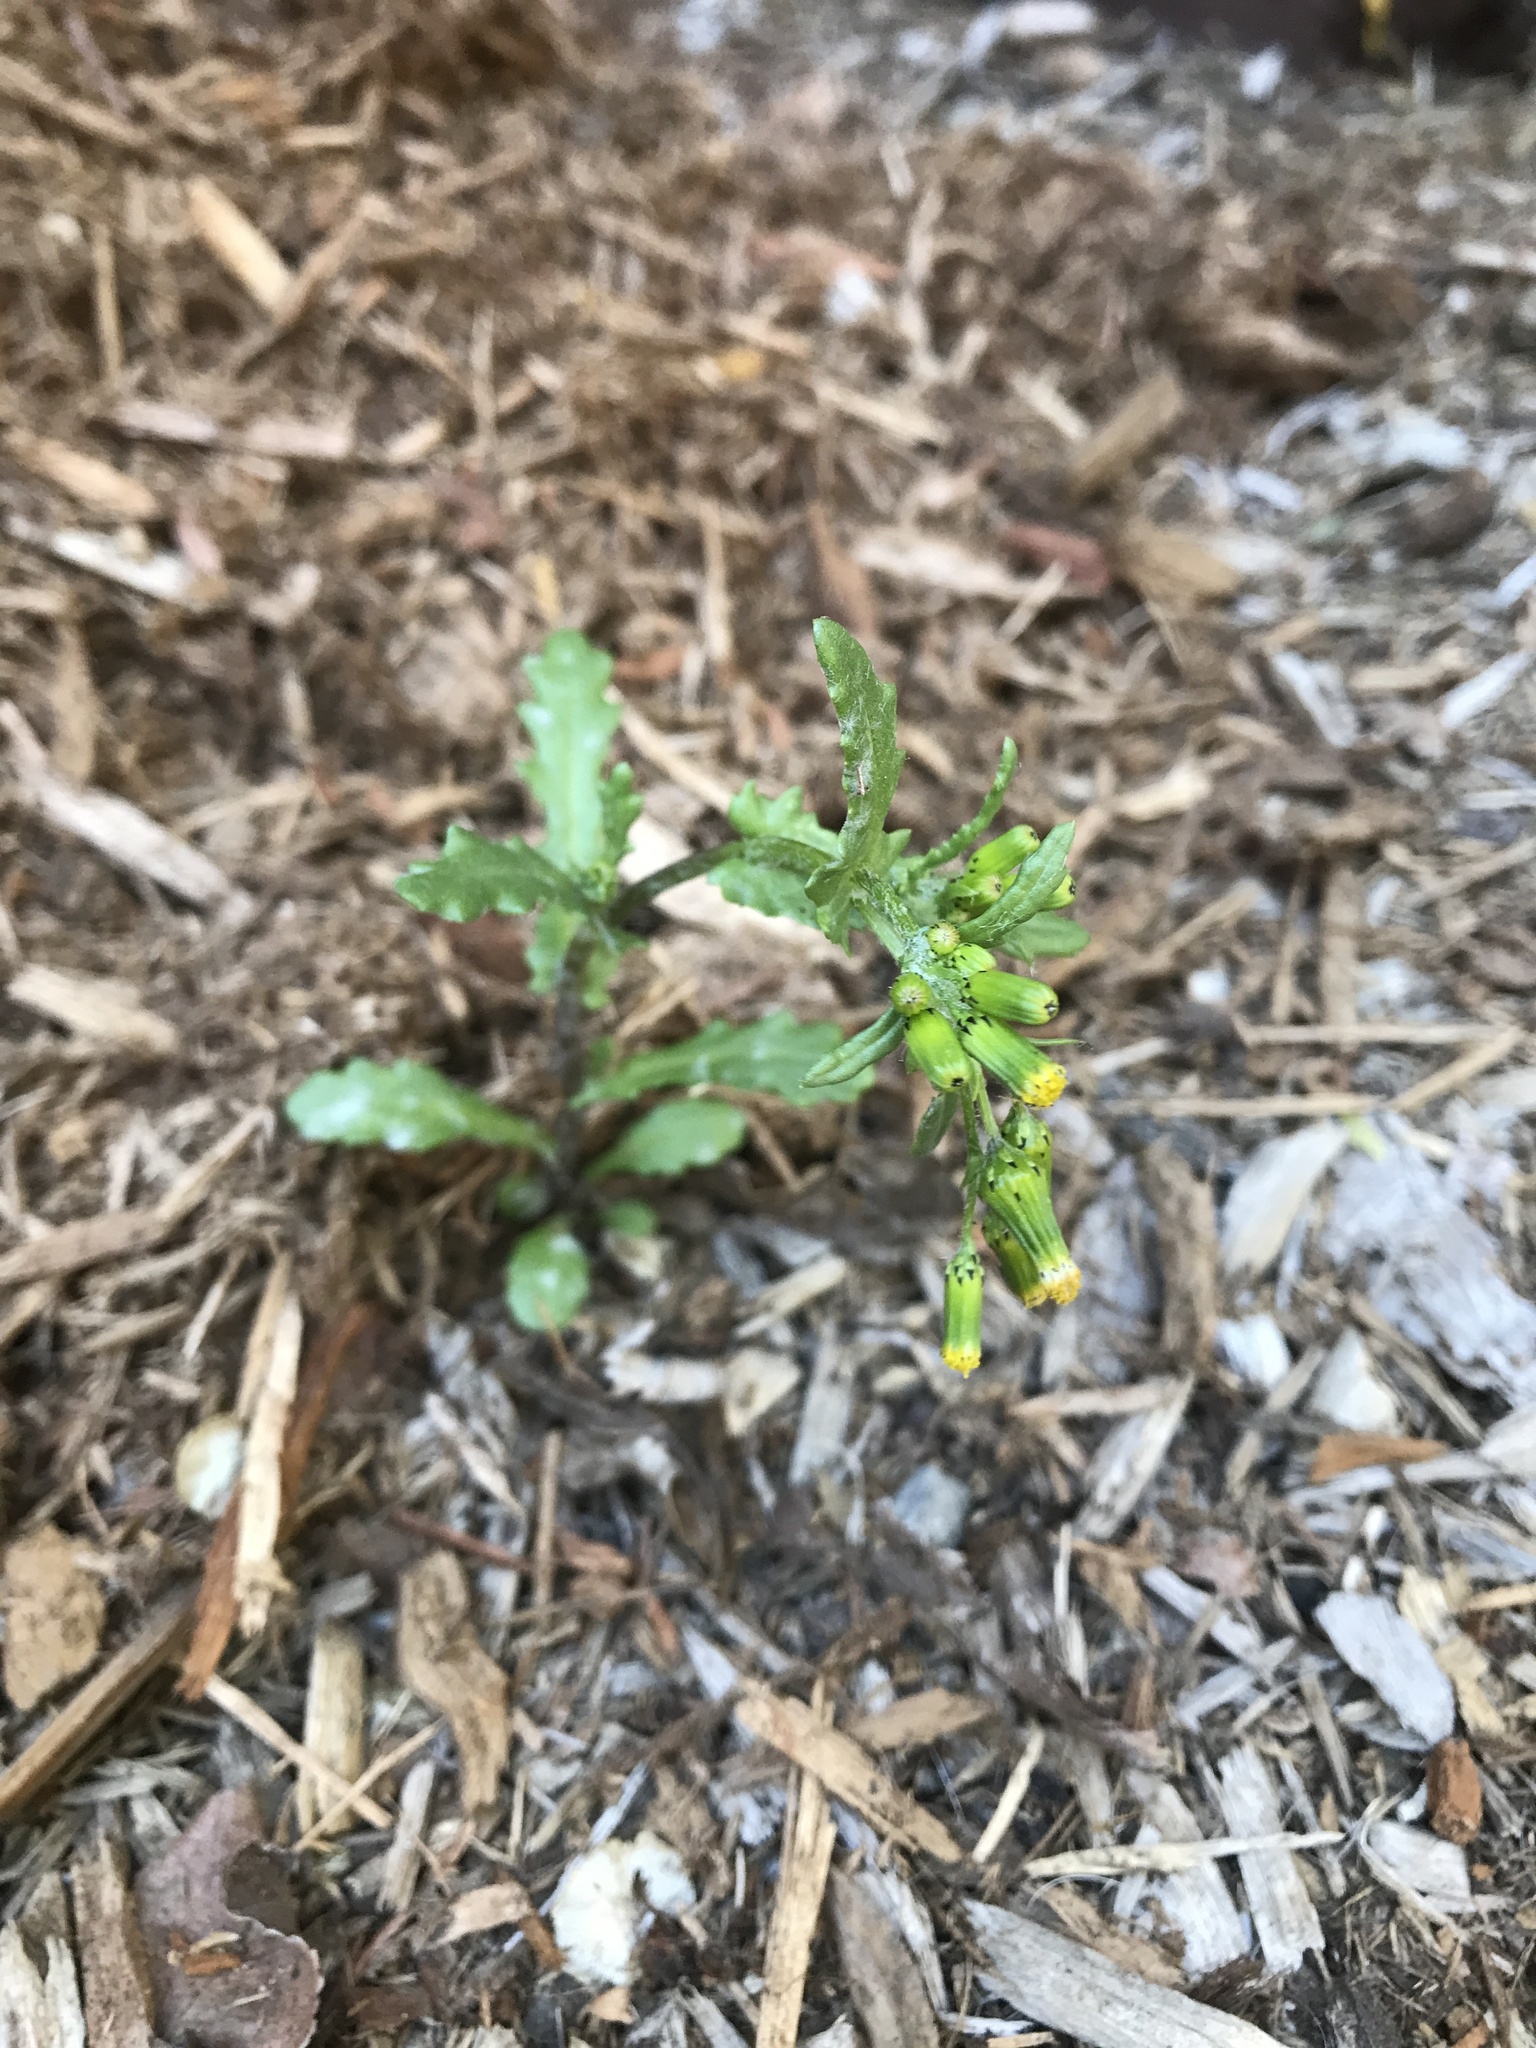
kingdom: Plantae
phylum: Tracheophyta
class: Magnoliopsida
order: Asterales
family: Asteraceae
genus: Senecio
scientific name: Senecio vulgaris
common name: Old-man-in-the-spring
